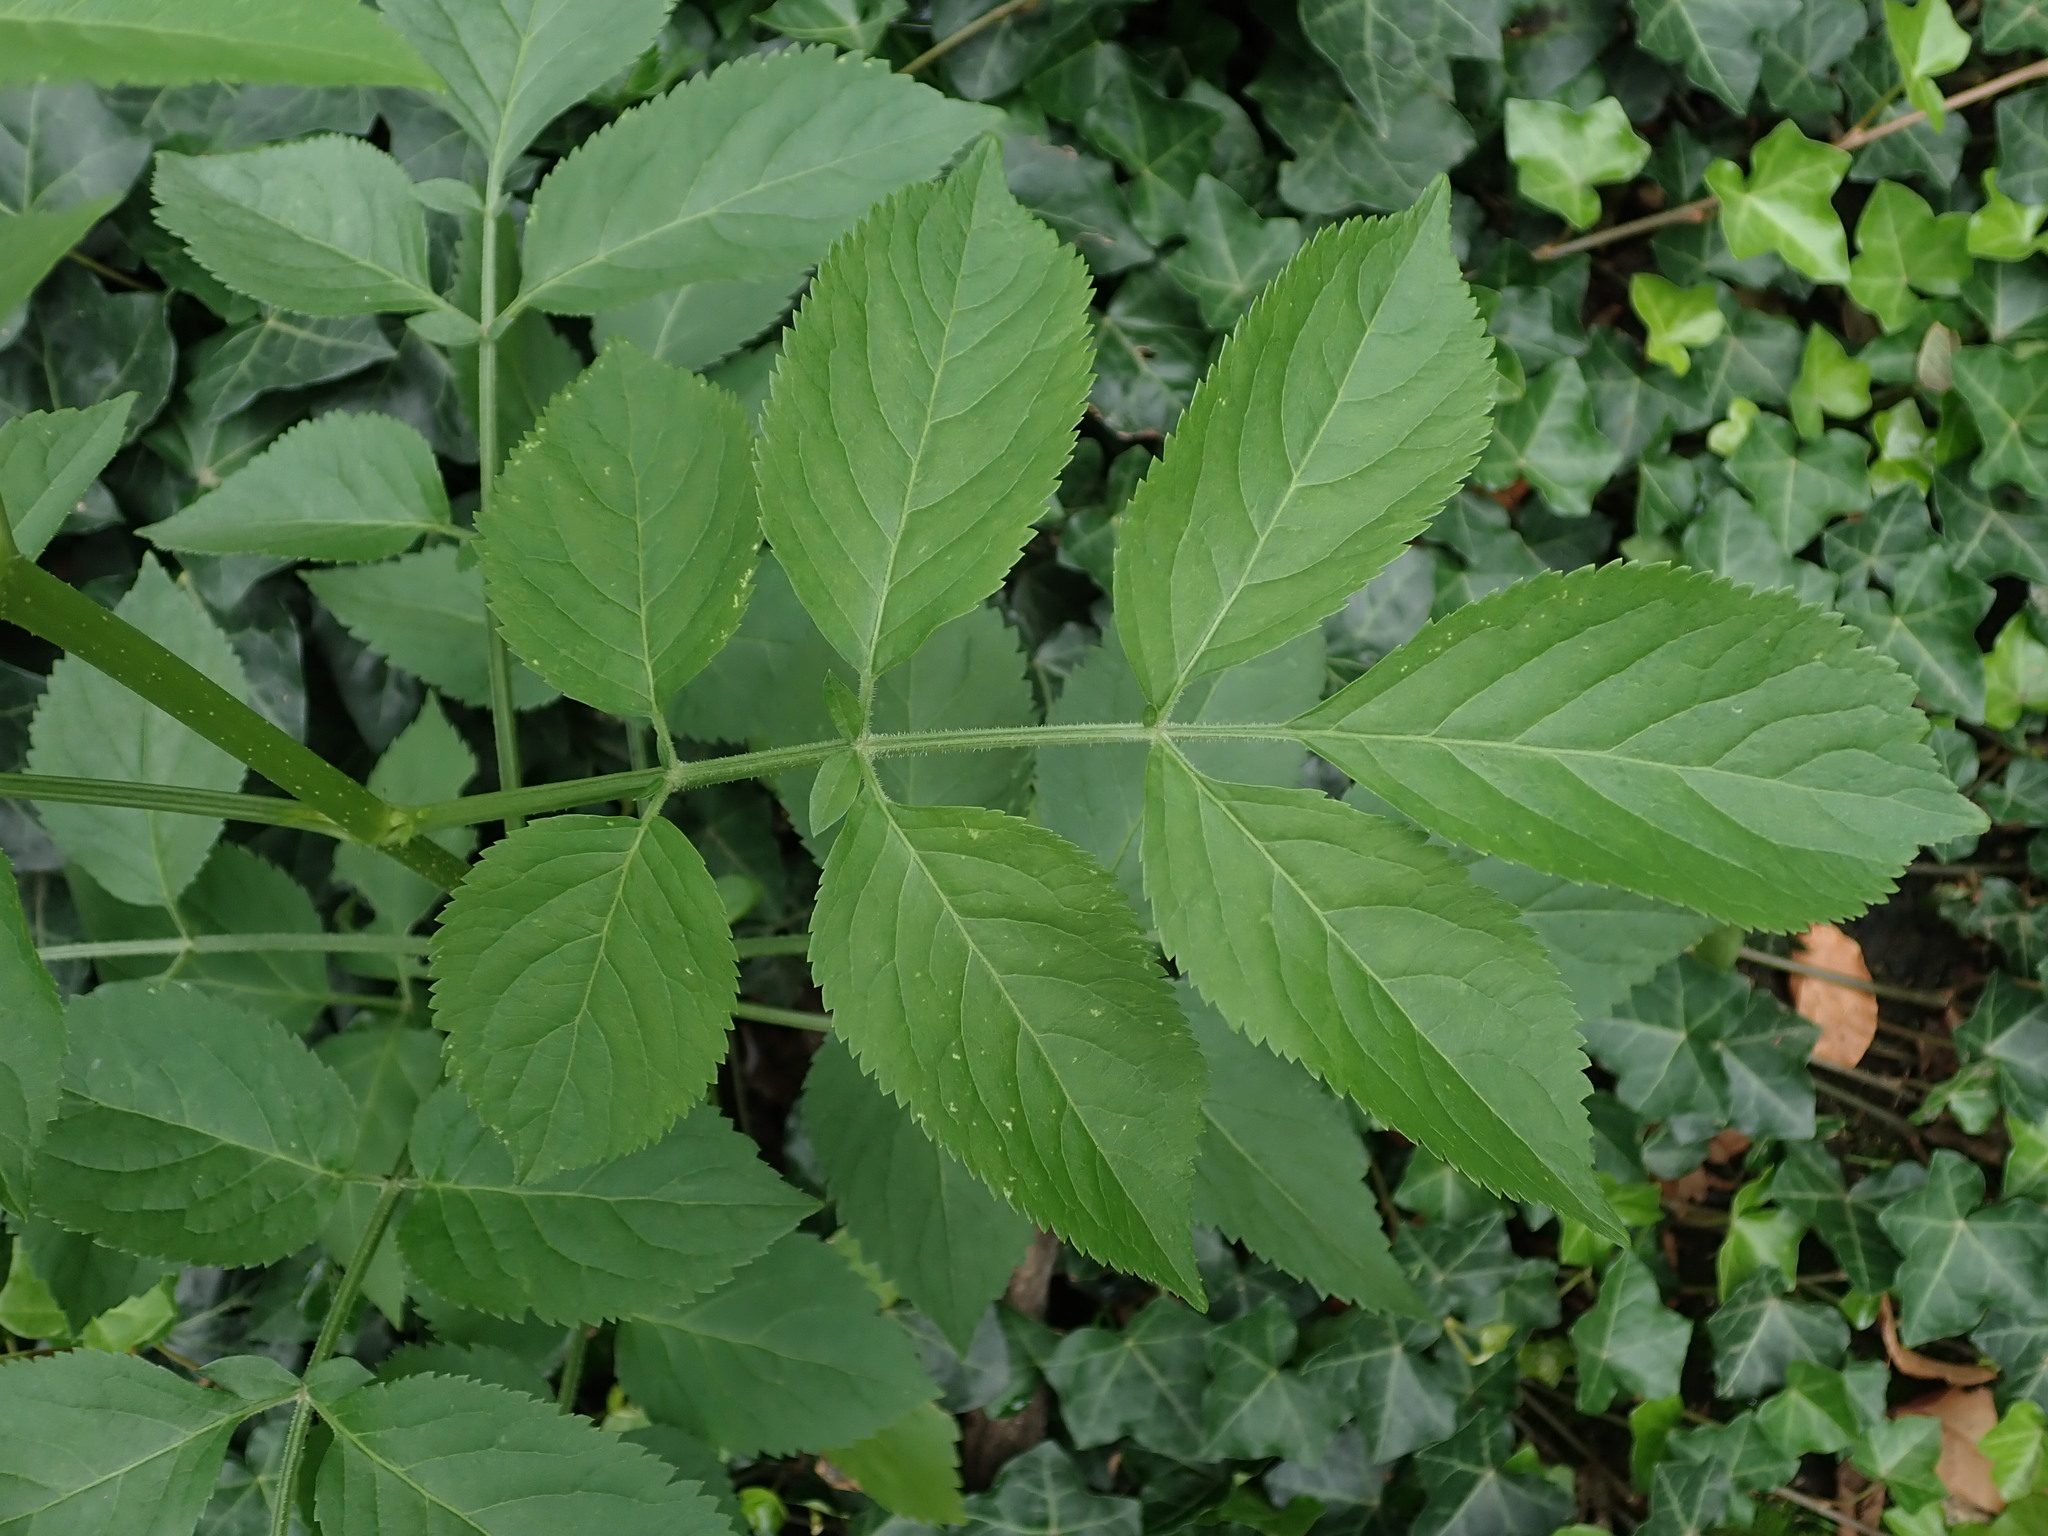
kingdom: Plantae
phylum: Tracheophyta
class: Magnoliopsida
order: Dipsacales
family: Viburnaceae
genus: Sambucus
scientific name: Sambucus nigra
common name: Elder
